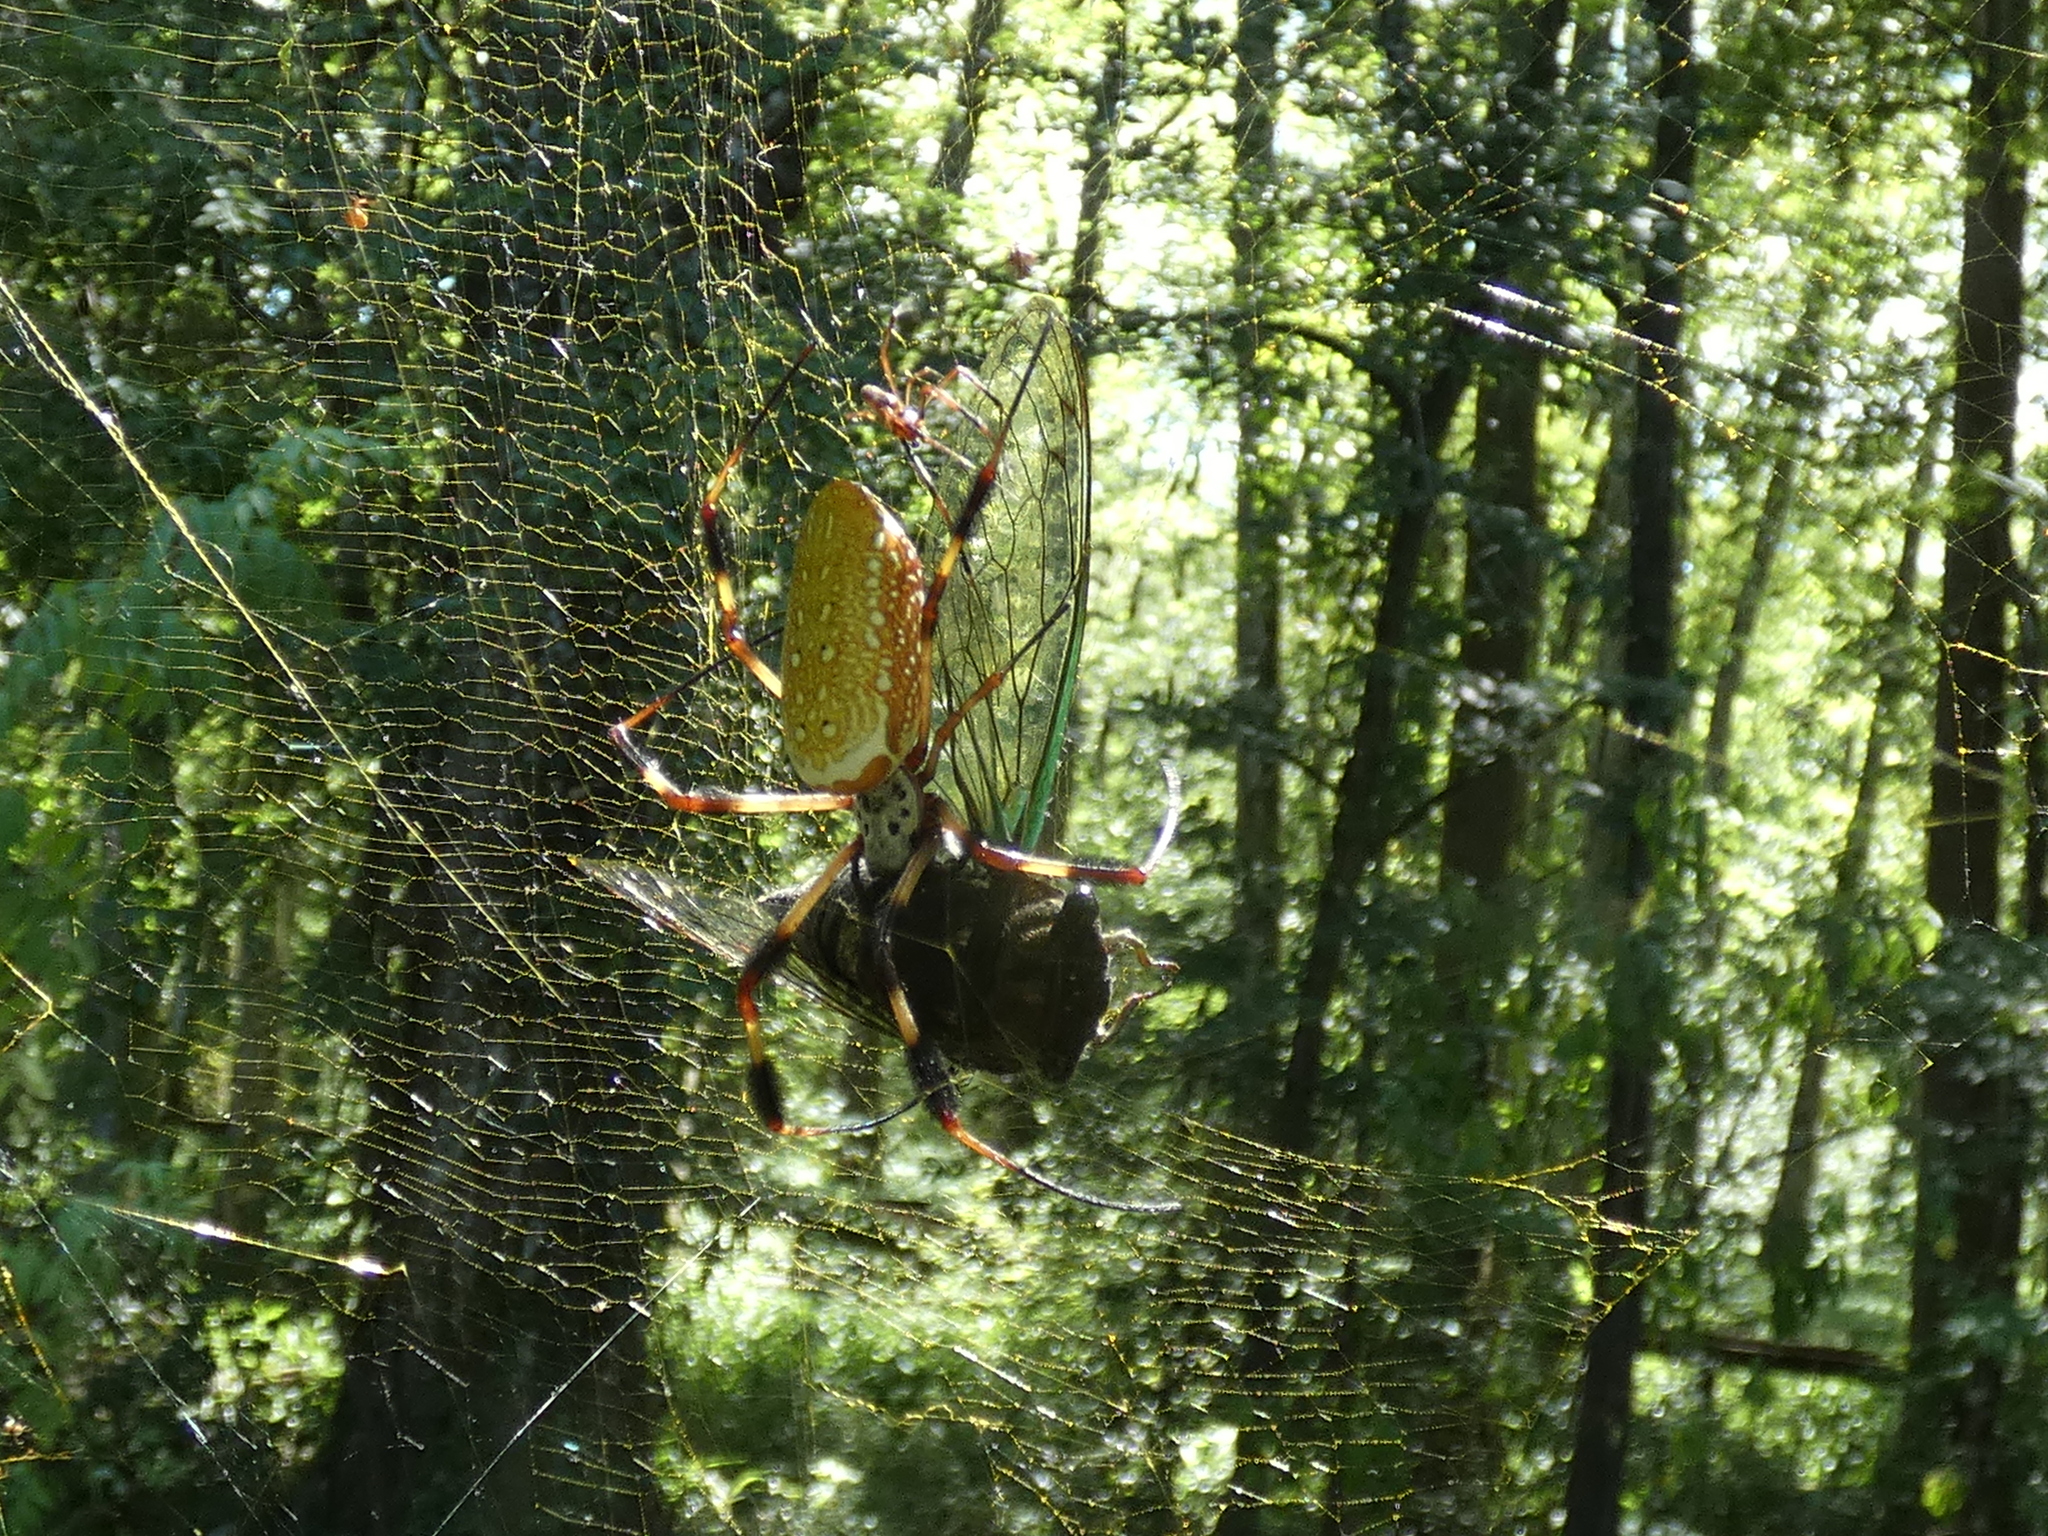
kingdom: Animalia
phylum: Arthropoda
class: Arachnida
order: Araneae
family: Araneidae
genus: Trichonephila
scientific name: Trichonephila clavipes
